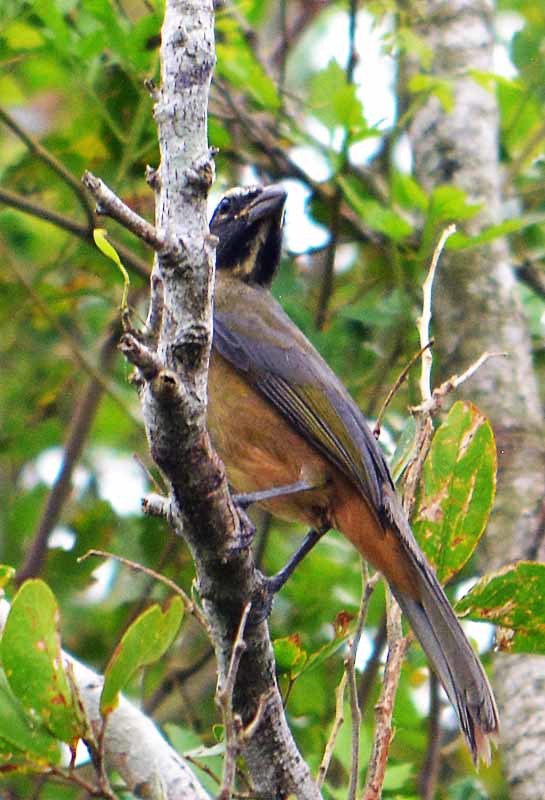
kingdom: Animalia
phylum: Chordata
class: Aves
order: Passeriformes
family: Thraupidae
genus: Saltator
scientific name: Saltator atriceps
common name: Black-headed saltator
